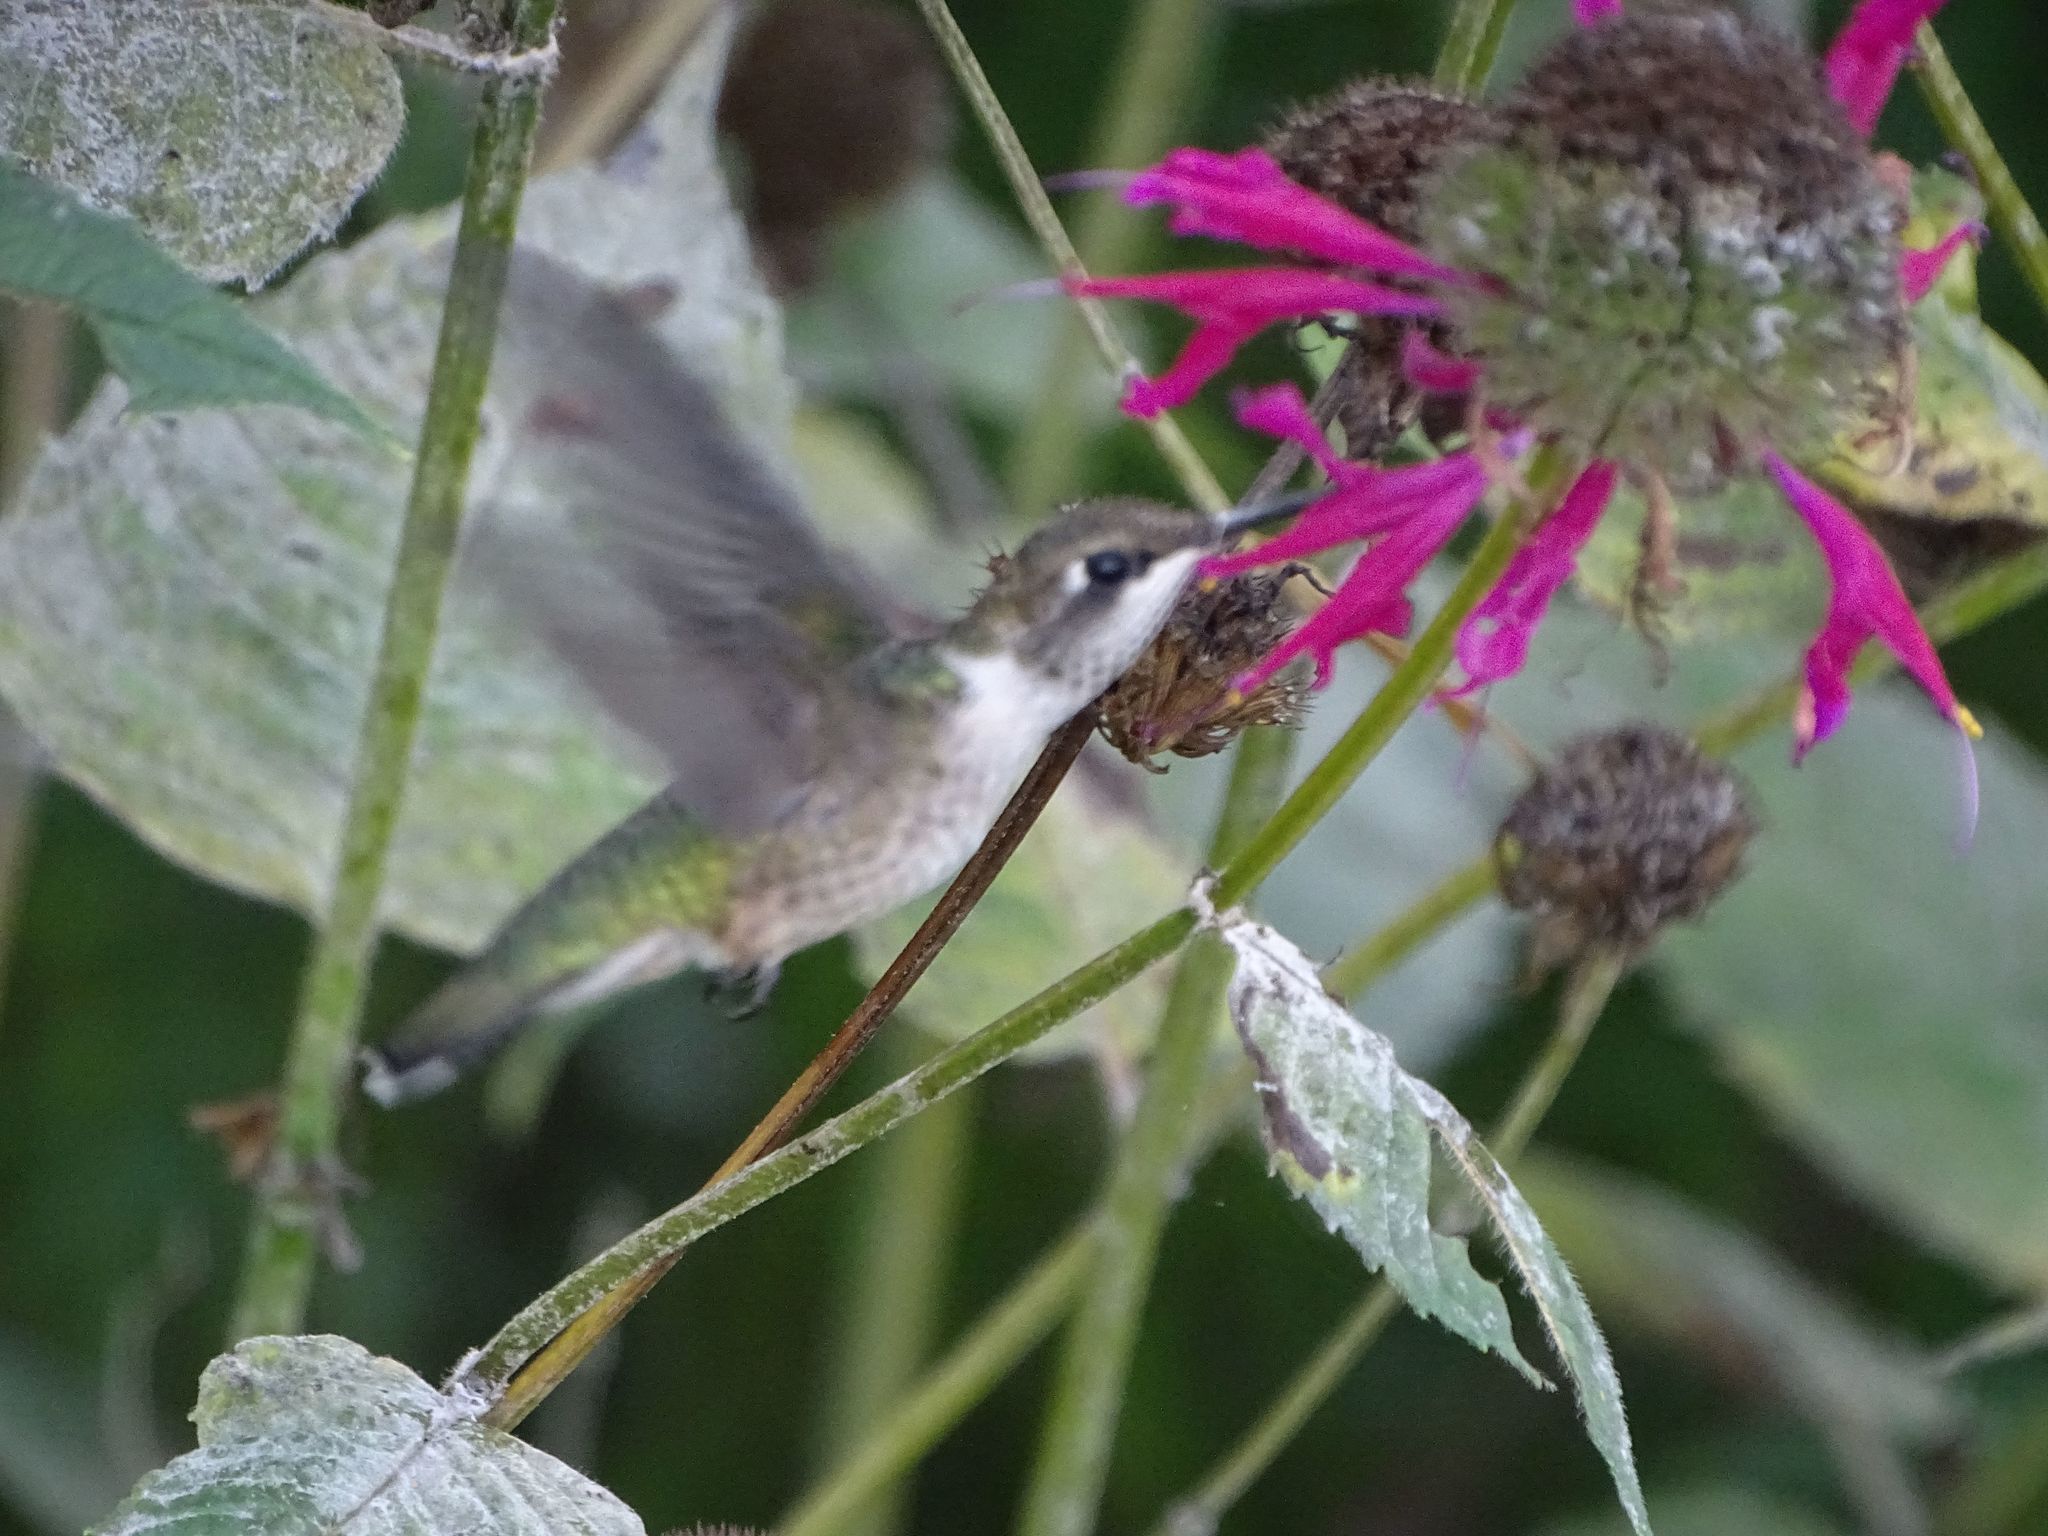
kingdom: Animalia
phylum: Chordata
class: Aves
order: Apodiformes
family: Trochilidae
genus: Archilochus
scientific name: Archilochus colubris
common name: Ruby-throated hummingbird
